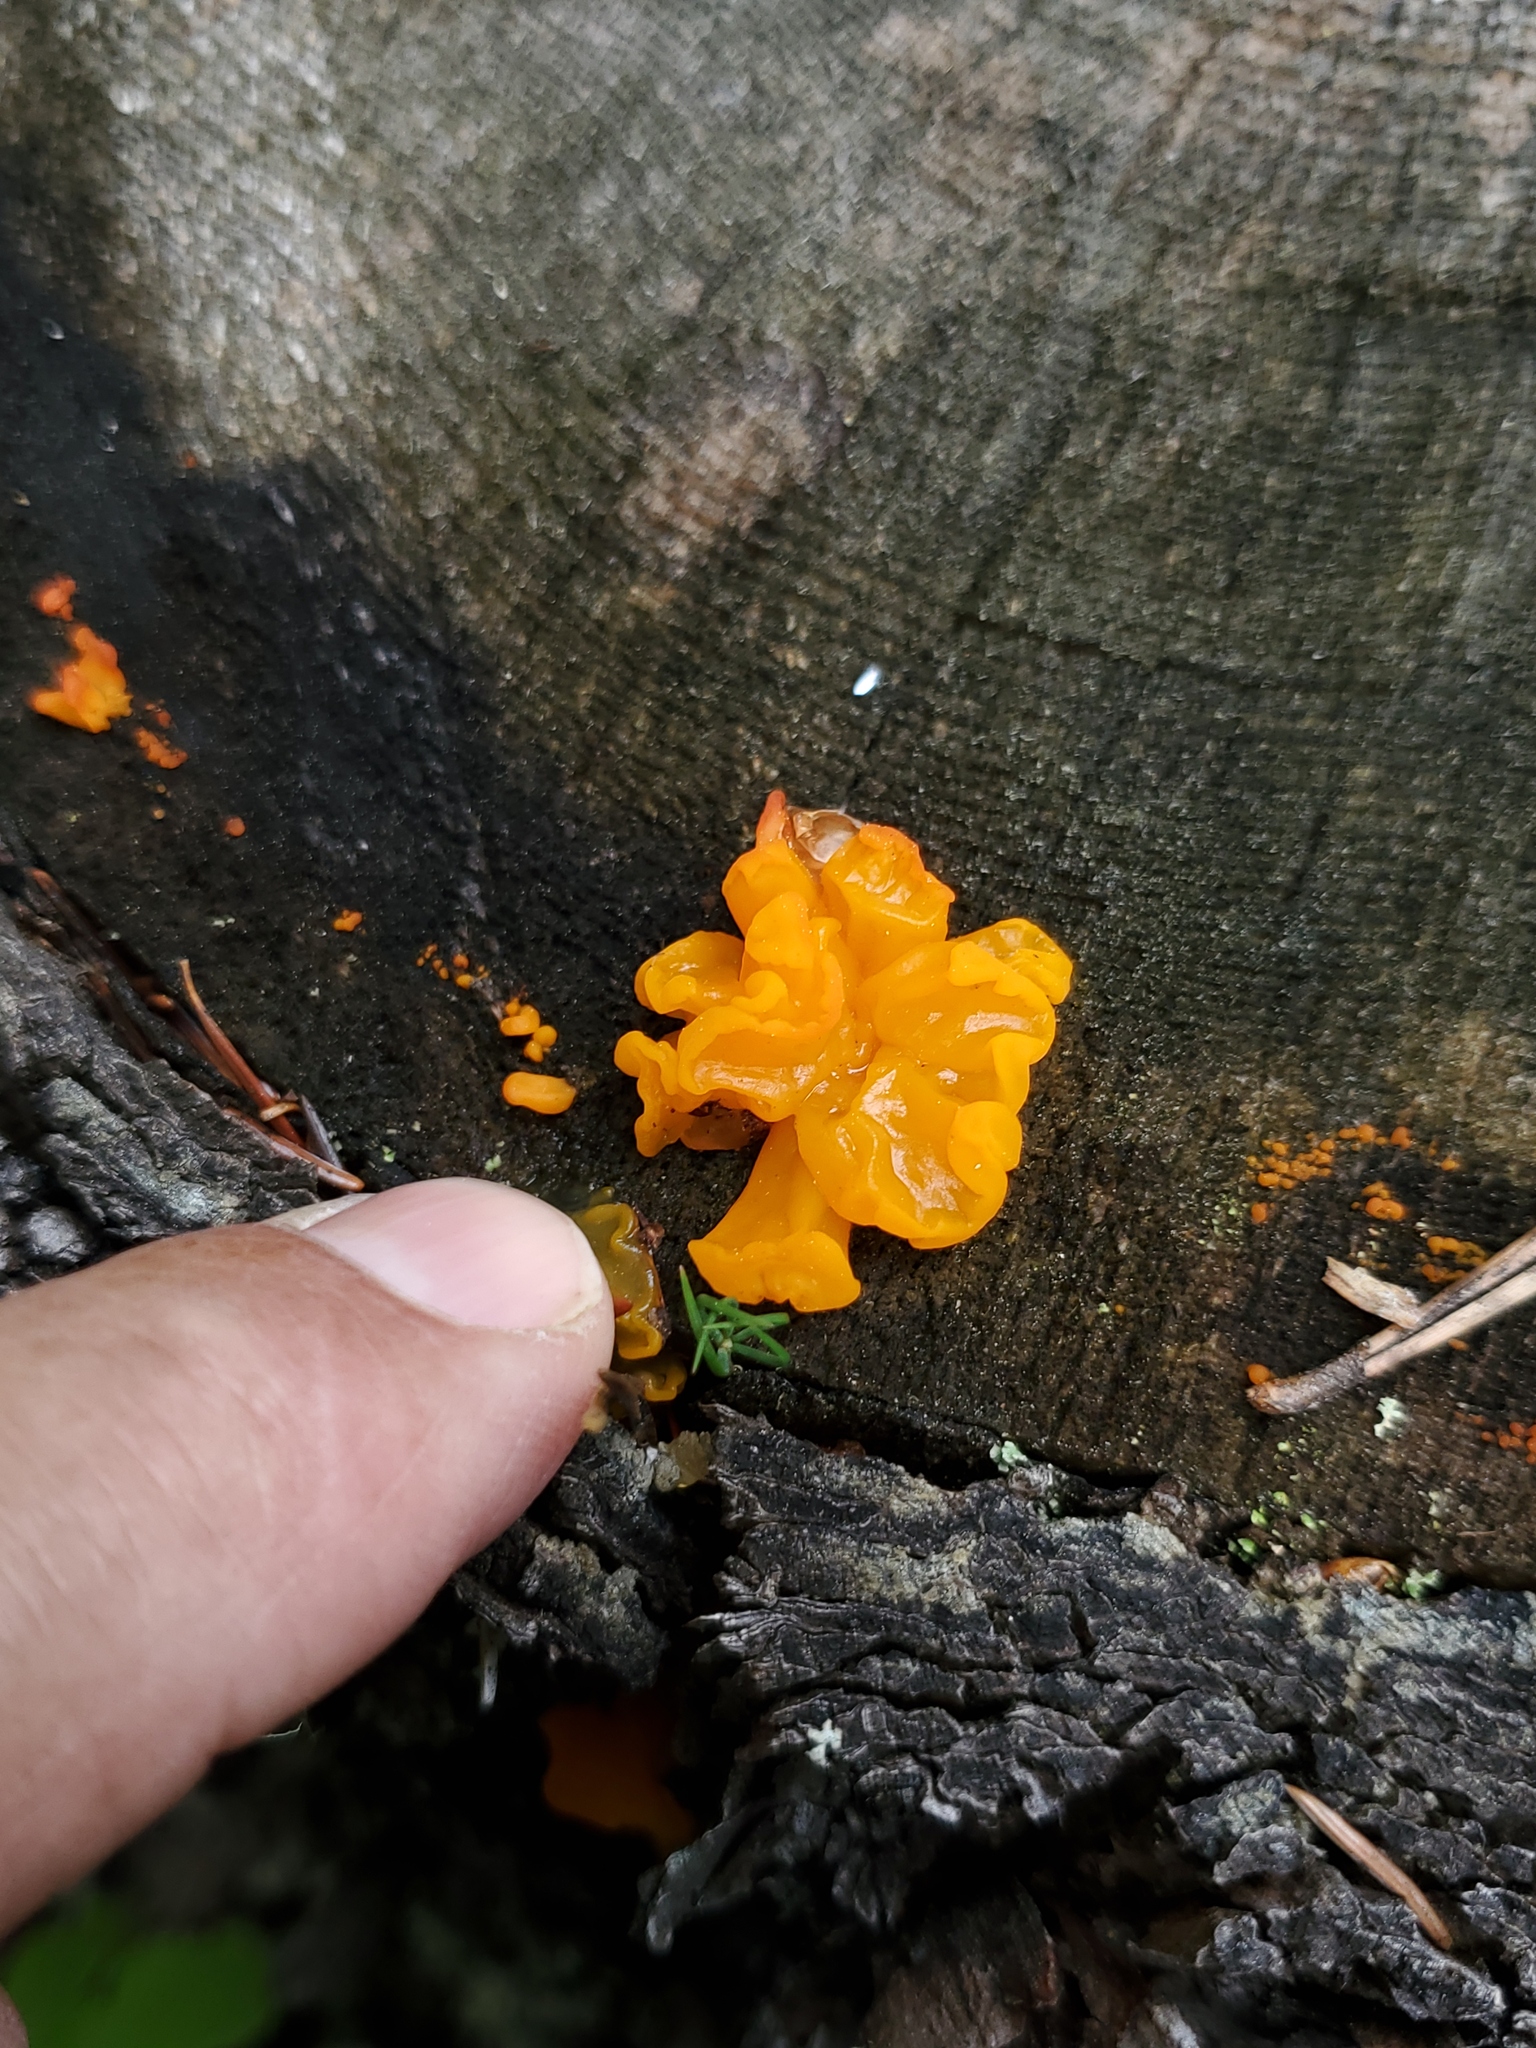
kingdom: Fungi
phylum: Basidiomycota
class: Dacrymycetes
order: Dacrymycetales
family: Dacrymycetaceae
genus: Dacrymyces
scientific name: Dacrymyces chrysospermus
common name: Orange jelly spot
